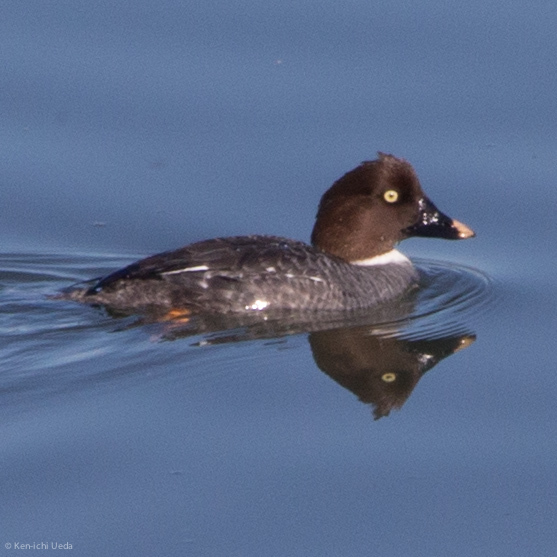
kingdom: Animalia
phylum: Chordata
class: Aves
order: Anseriformes
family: Anatidae
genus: Bucephala
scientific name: Bucephala clangula
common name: Common goldeneye
